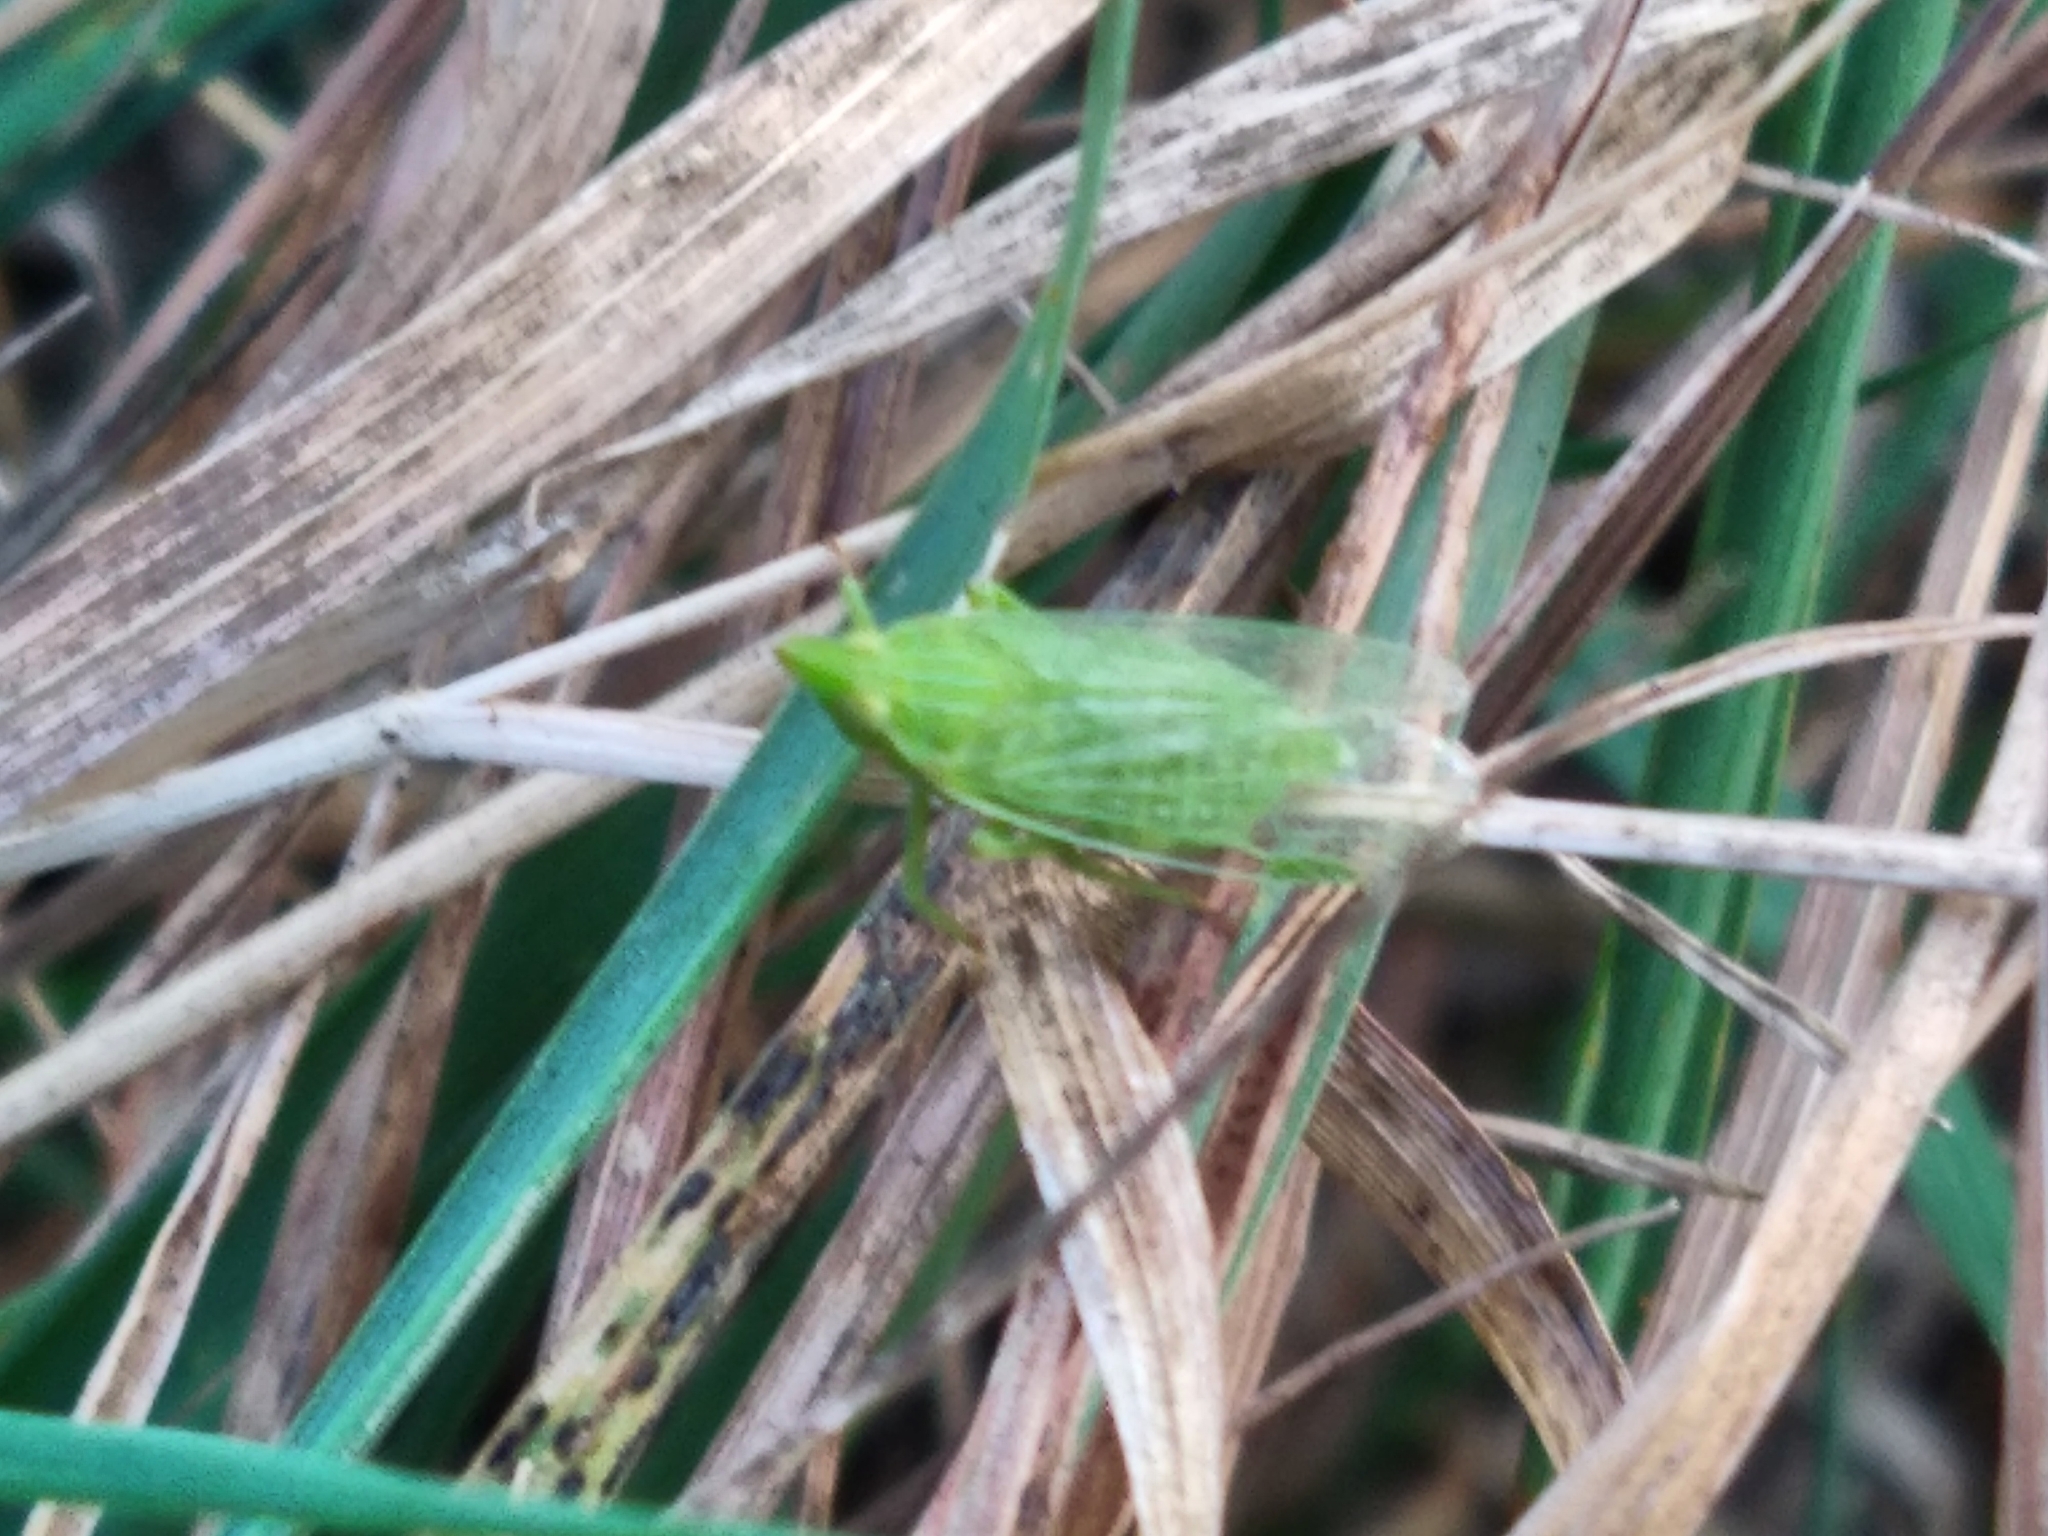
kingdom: Animalia
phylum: Arthropoda
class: Insecta
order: Hemiptera
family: Dictyopharidae
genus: Dictyophara
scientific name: Dictyophara europaea
